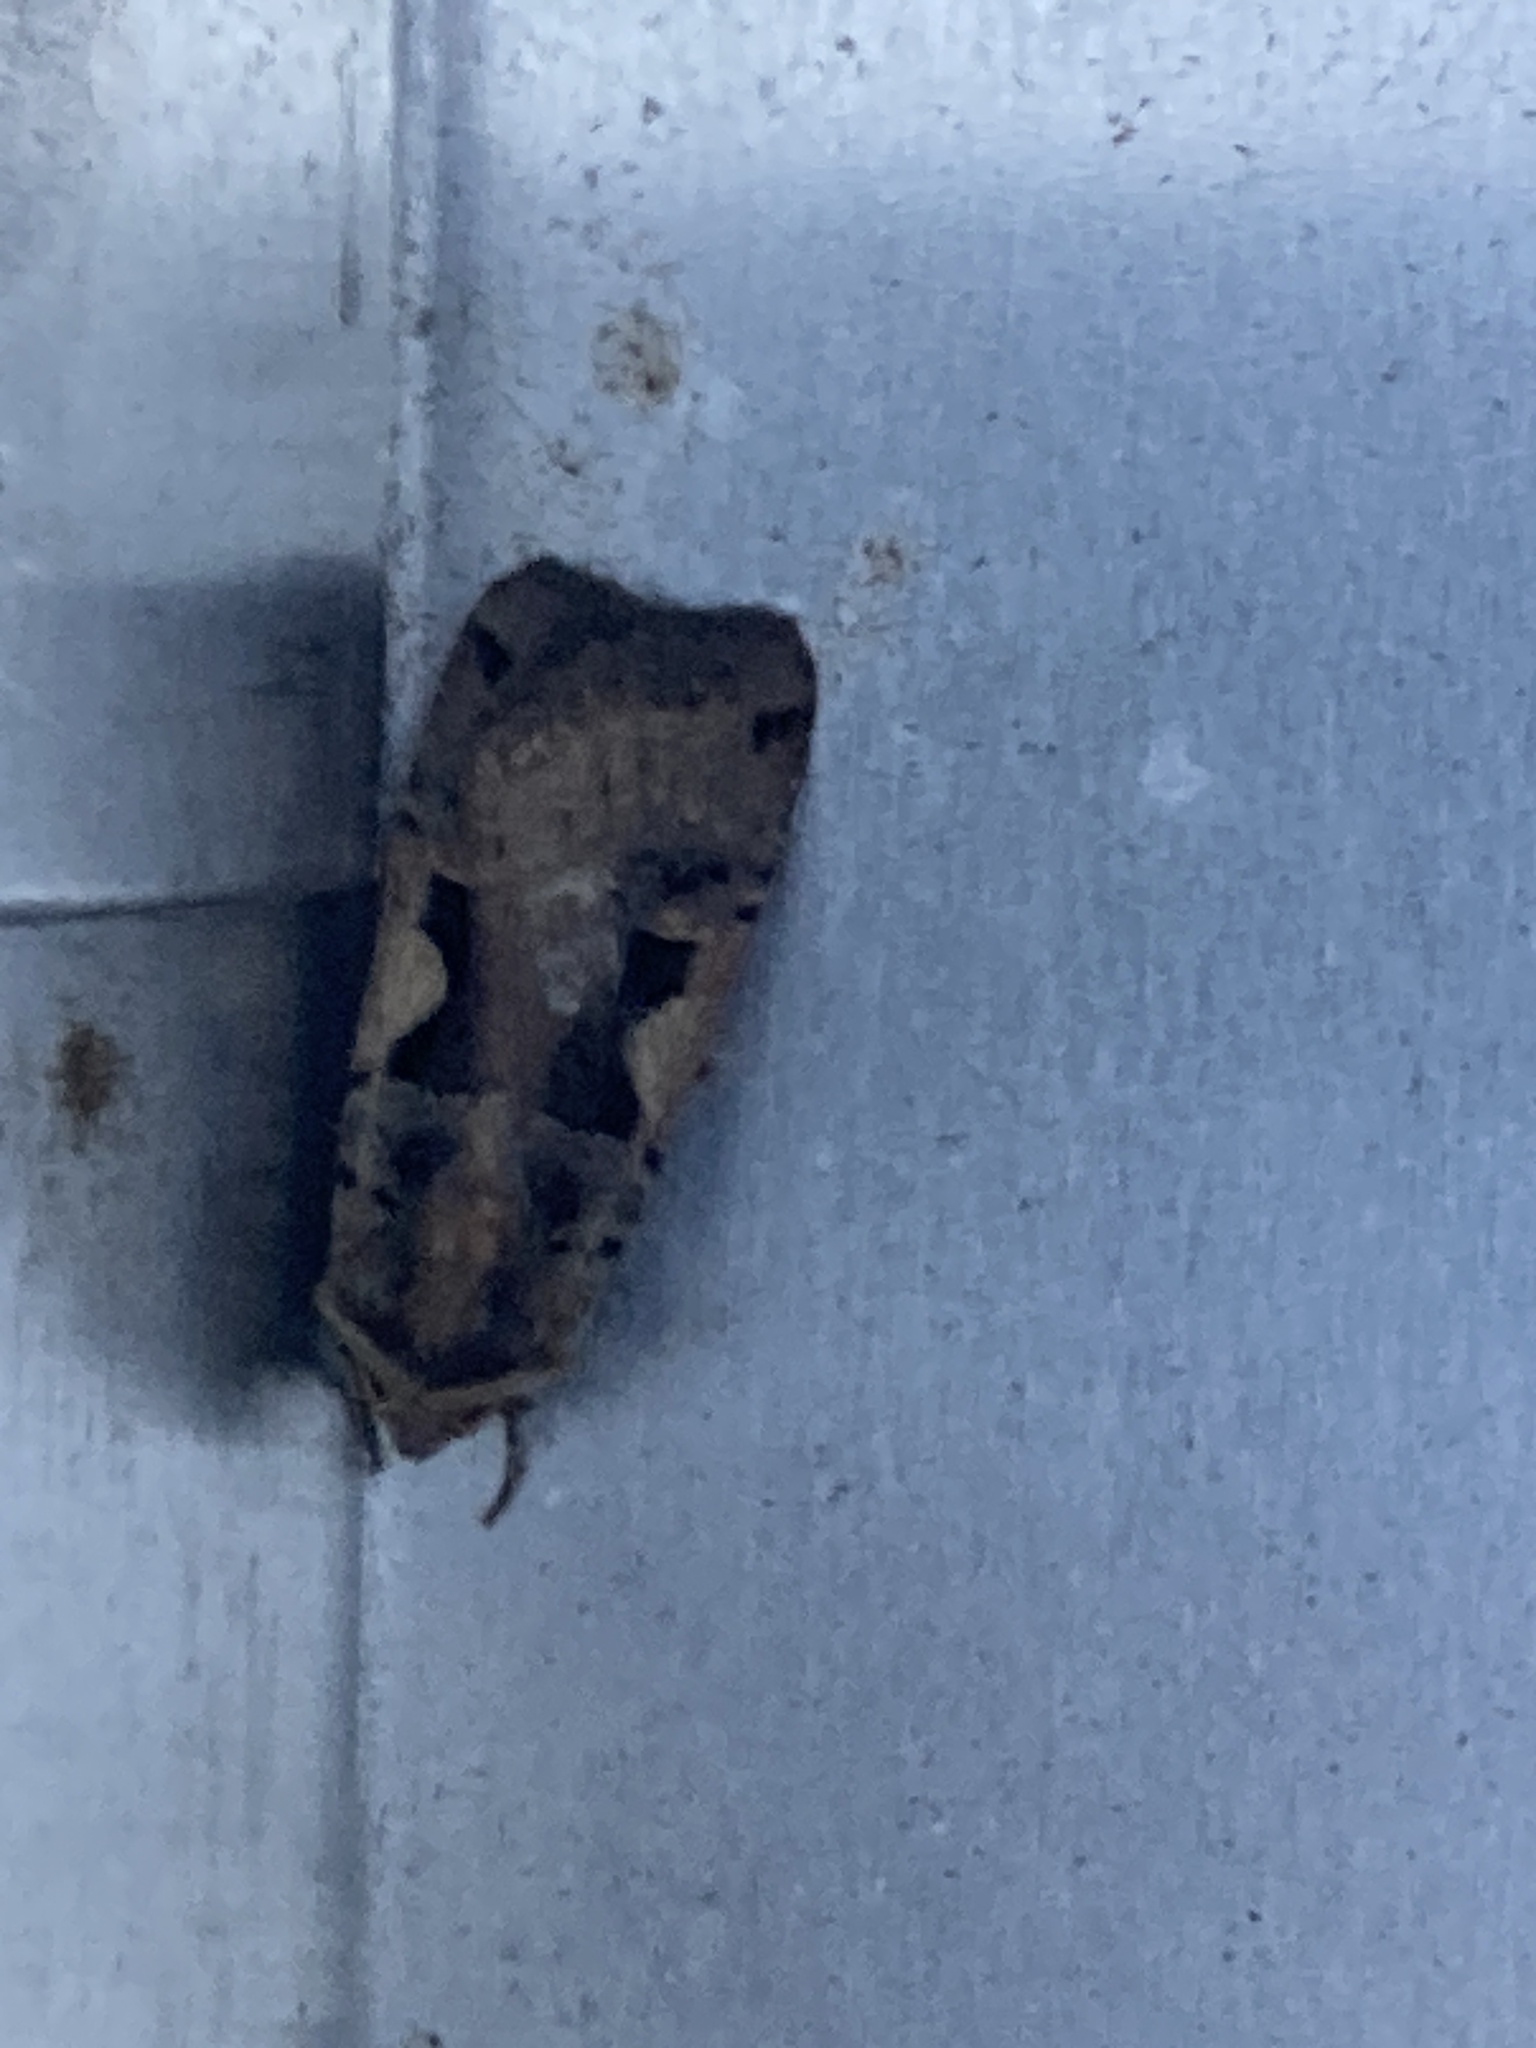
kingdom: Animalia
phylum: Arthropoda
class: Insecta
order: Lepidoptera
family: Noctuidae
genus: Xestia
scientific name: Xestia c-nigrum
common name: Setaceous hebrew character
